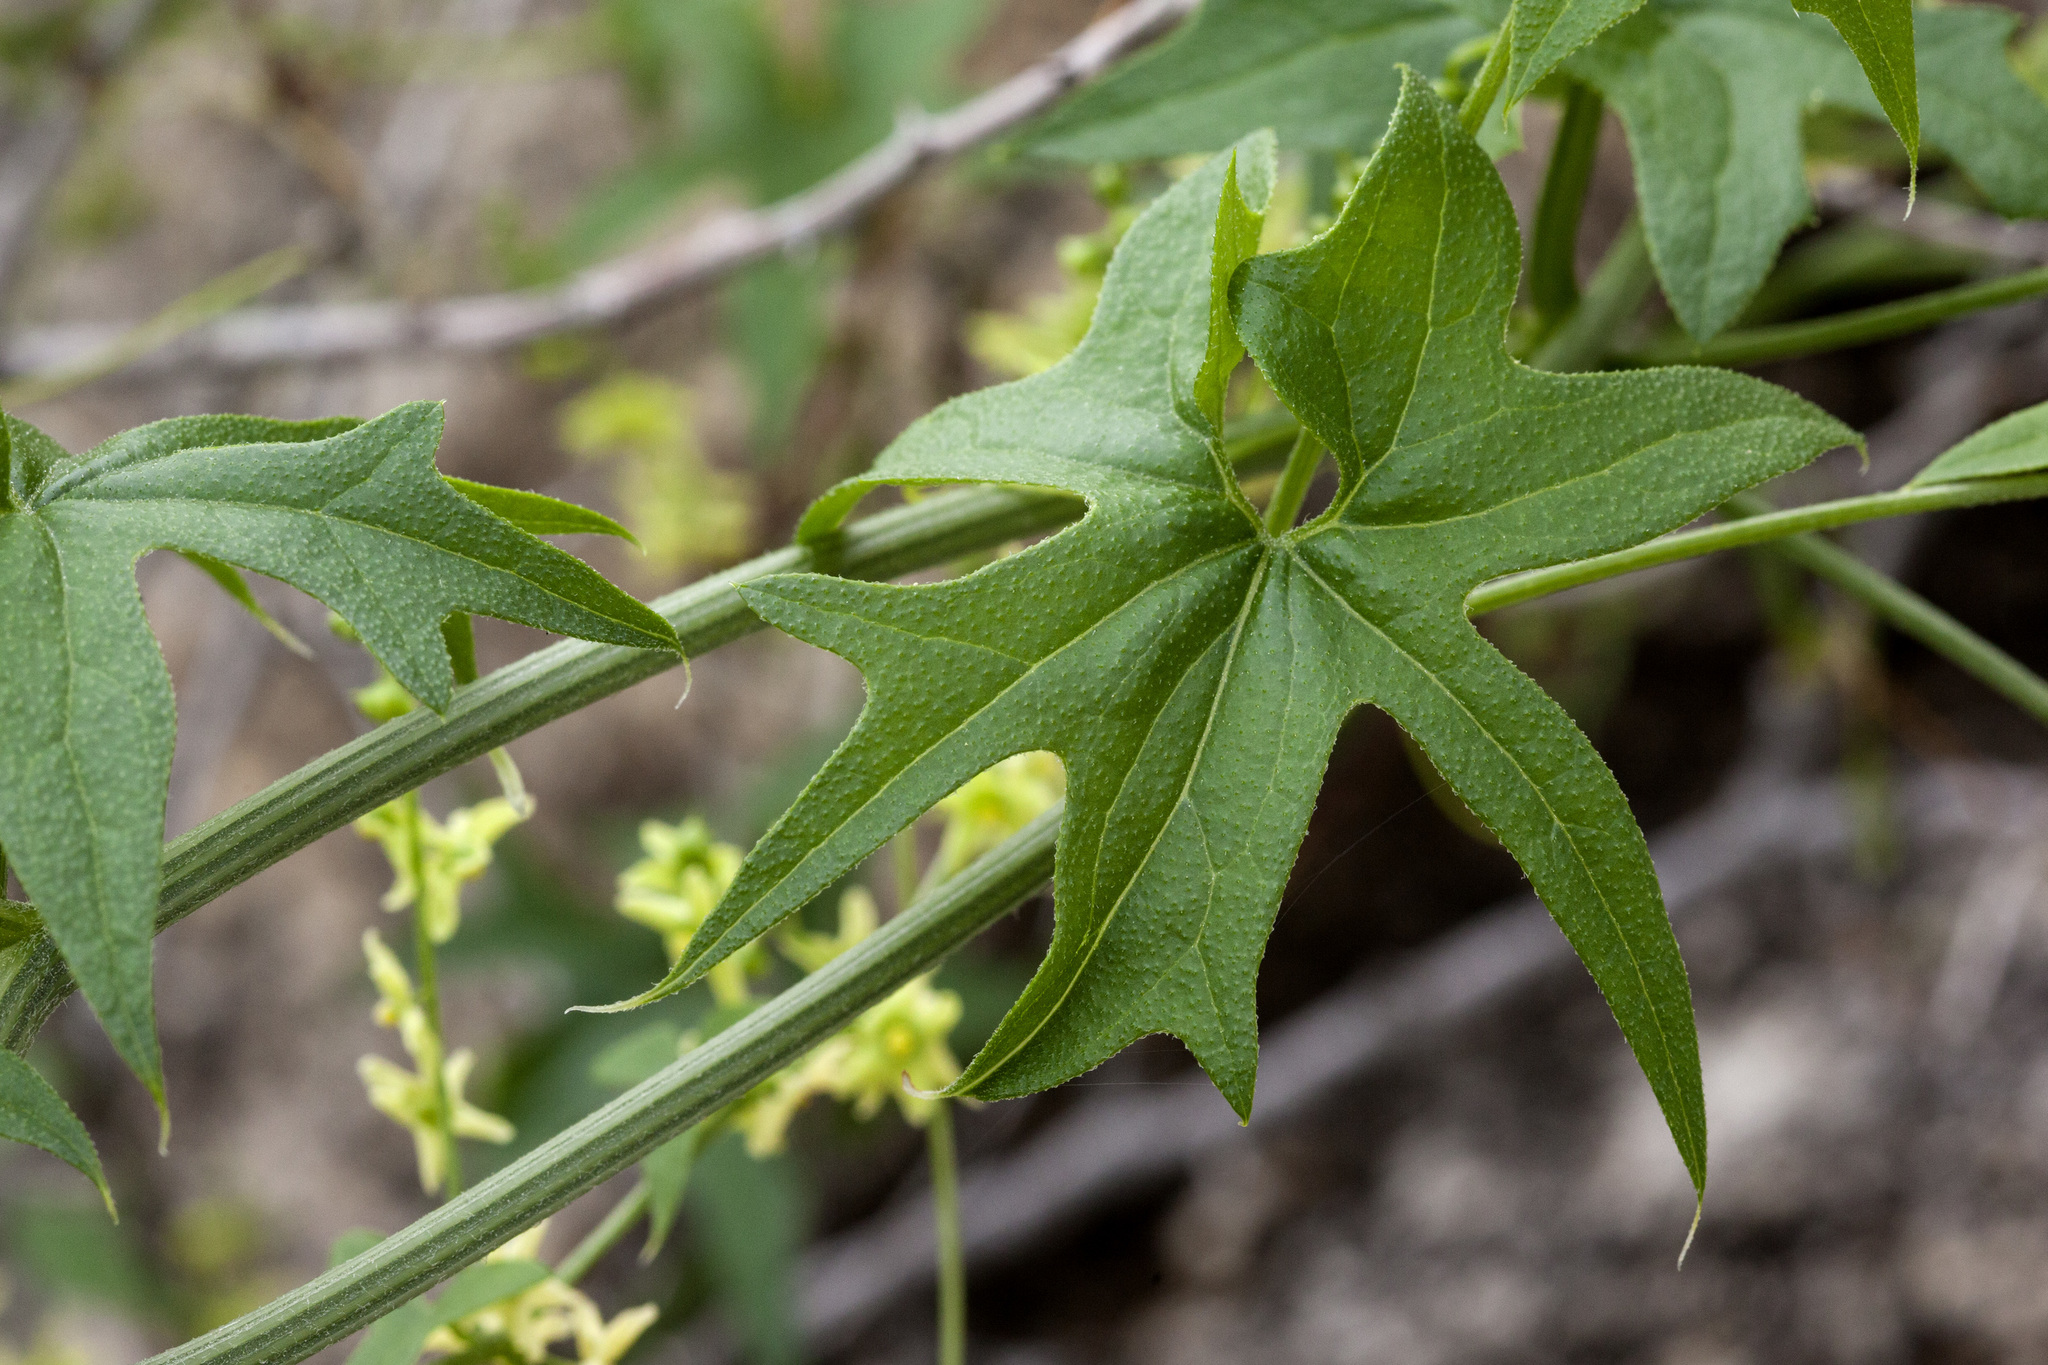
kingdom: Plantae
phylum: Tracheophyta
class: Magnoliopsida
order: Cucurbitales
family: Cucurbitaceae
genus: Marah
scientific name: Marah gilensis
